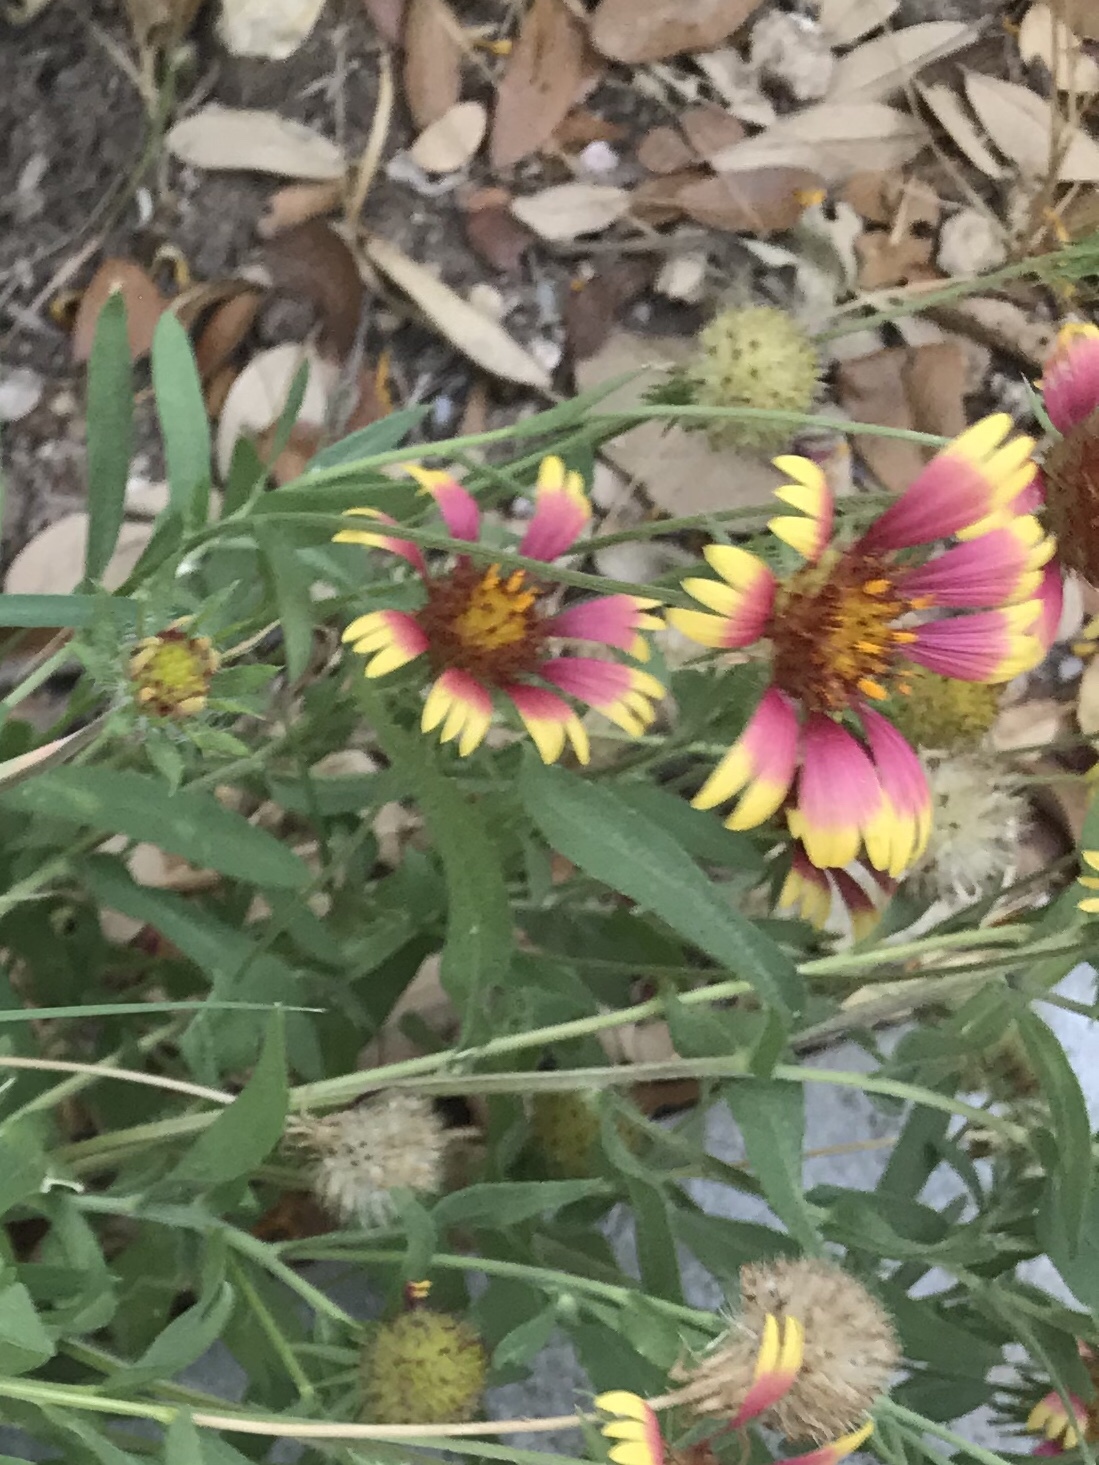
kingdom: Plantae
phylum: Tracheophyta
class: Magnoliopsida
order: Asterales
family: Asteraceae
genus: Gaillardia
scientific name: Gaillardia pulchella
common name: Firewheel
